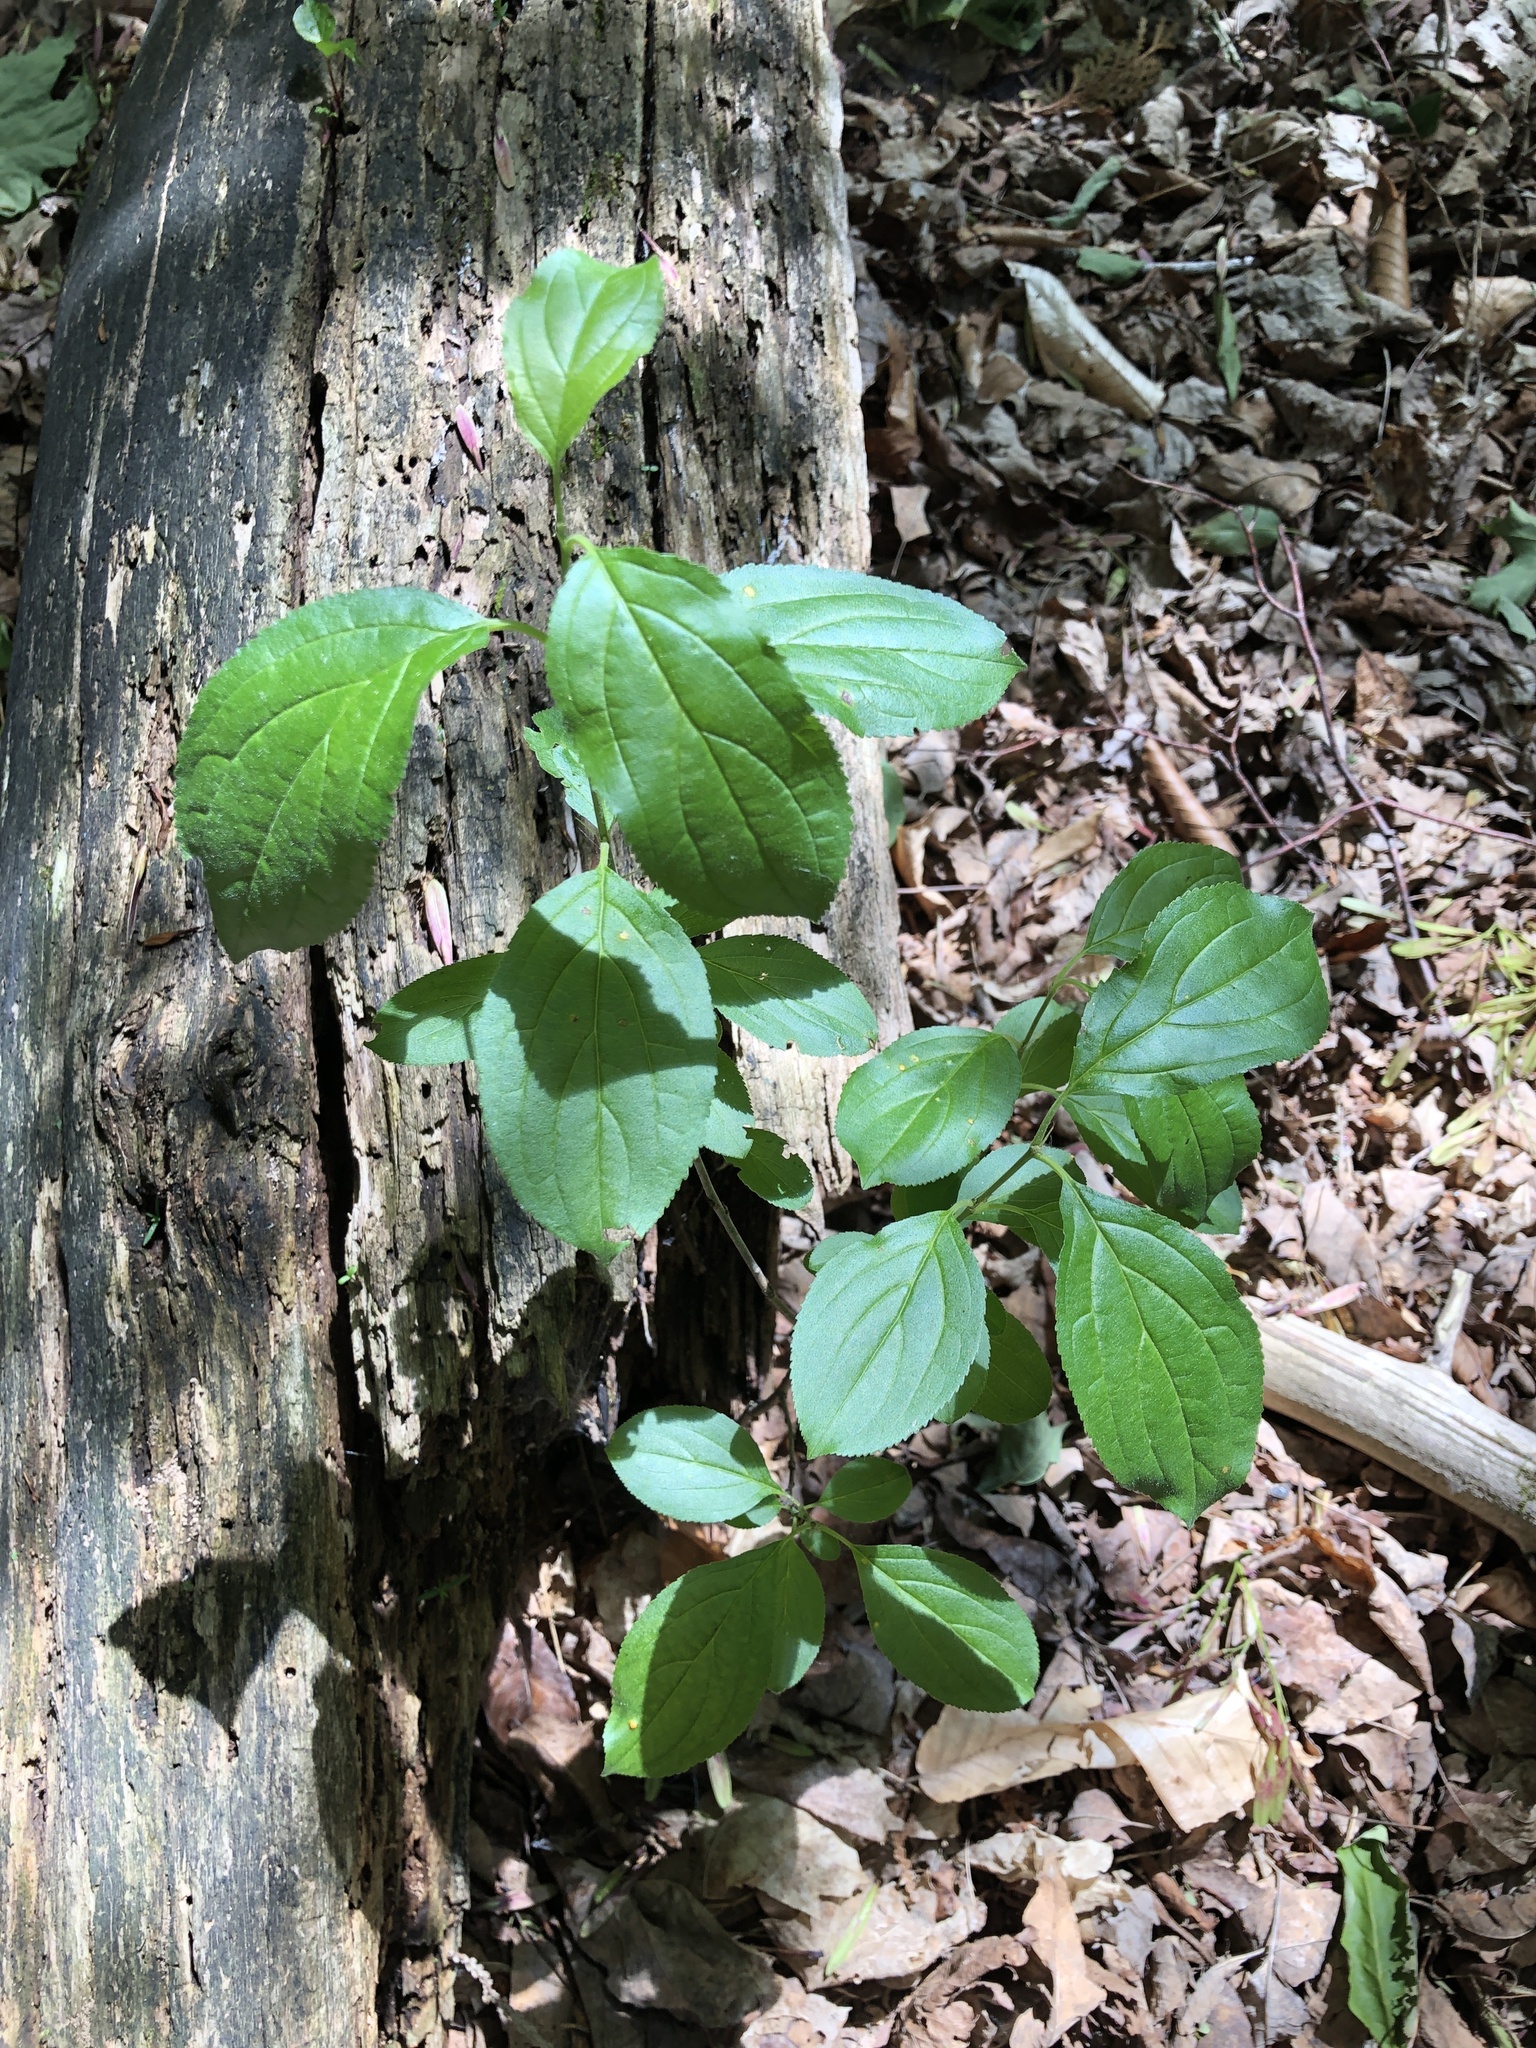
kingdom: Plantae
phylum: Tracheophyta
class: Magnoliopsida
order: Rosales
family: Rhamnaceae
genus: Rhamnus
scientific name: Rhamnus cathartica
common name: Common buckthorn
